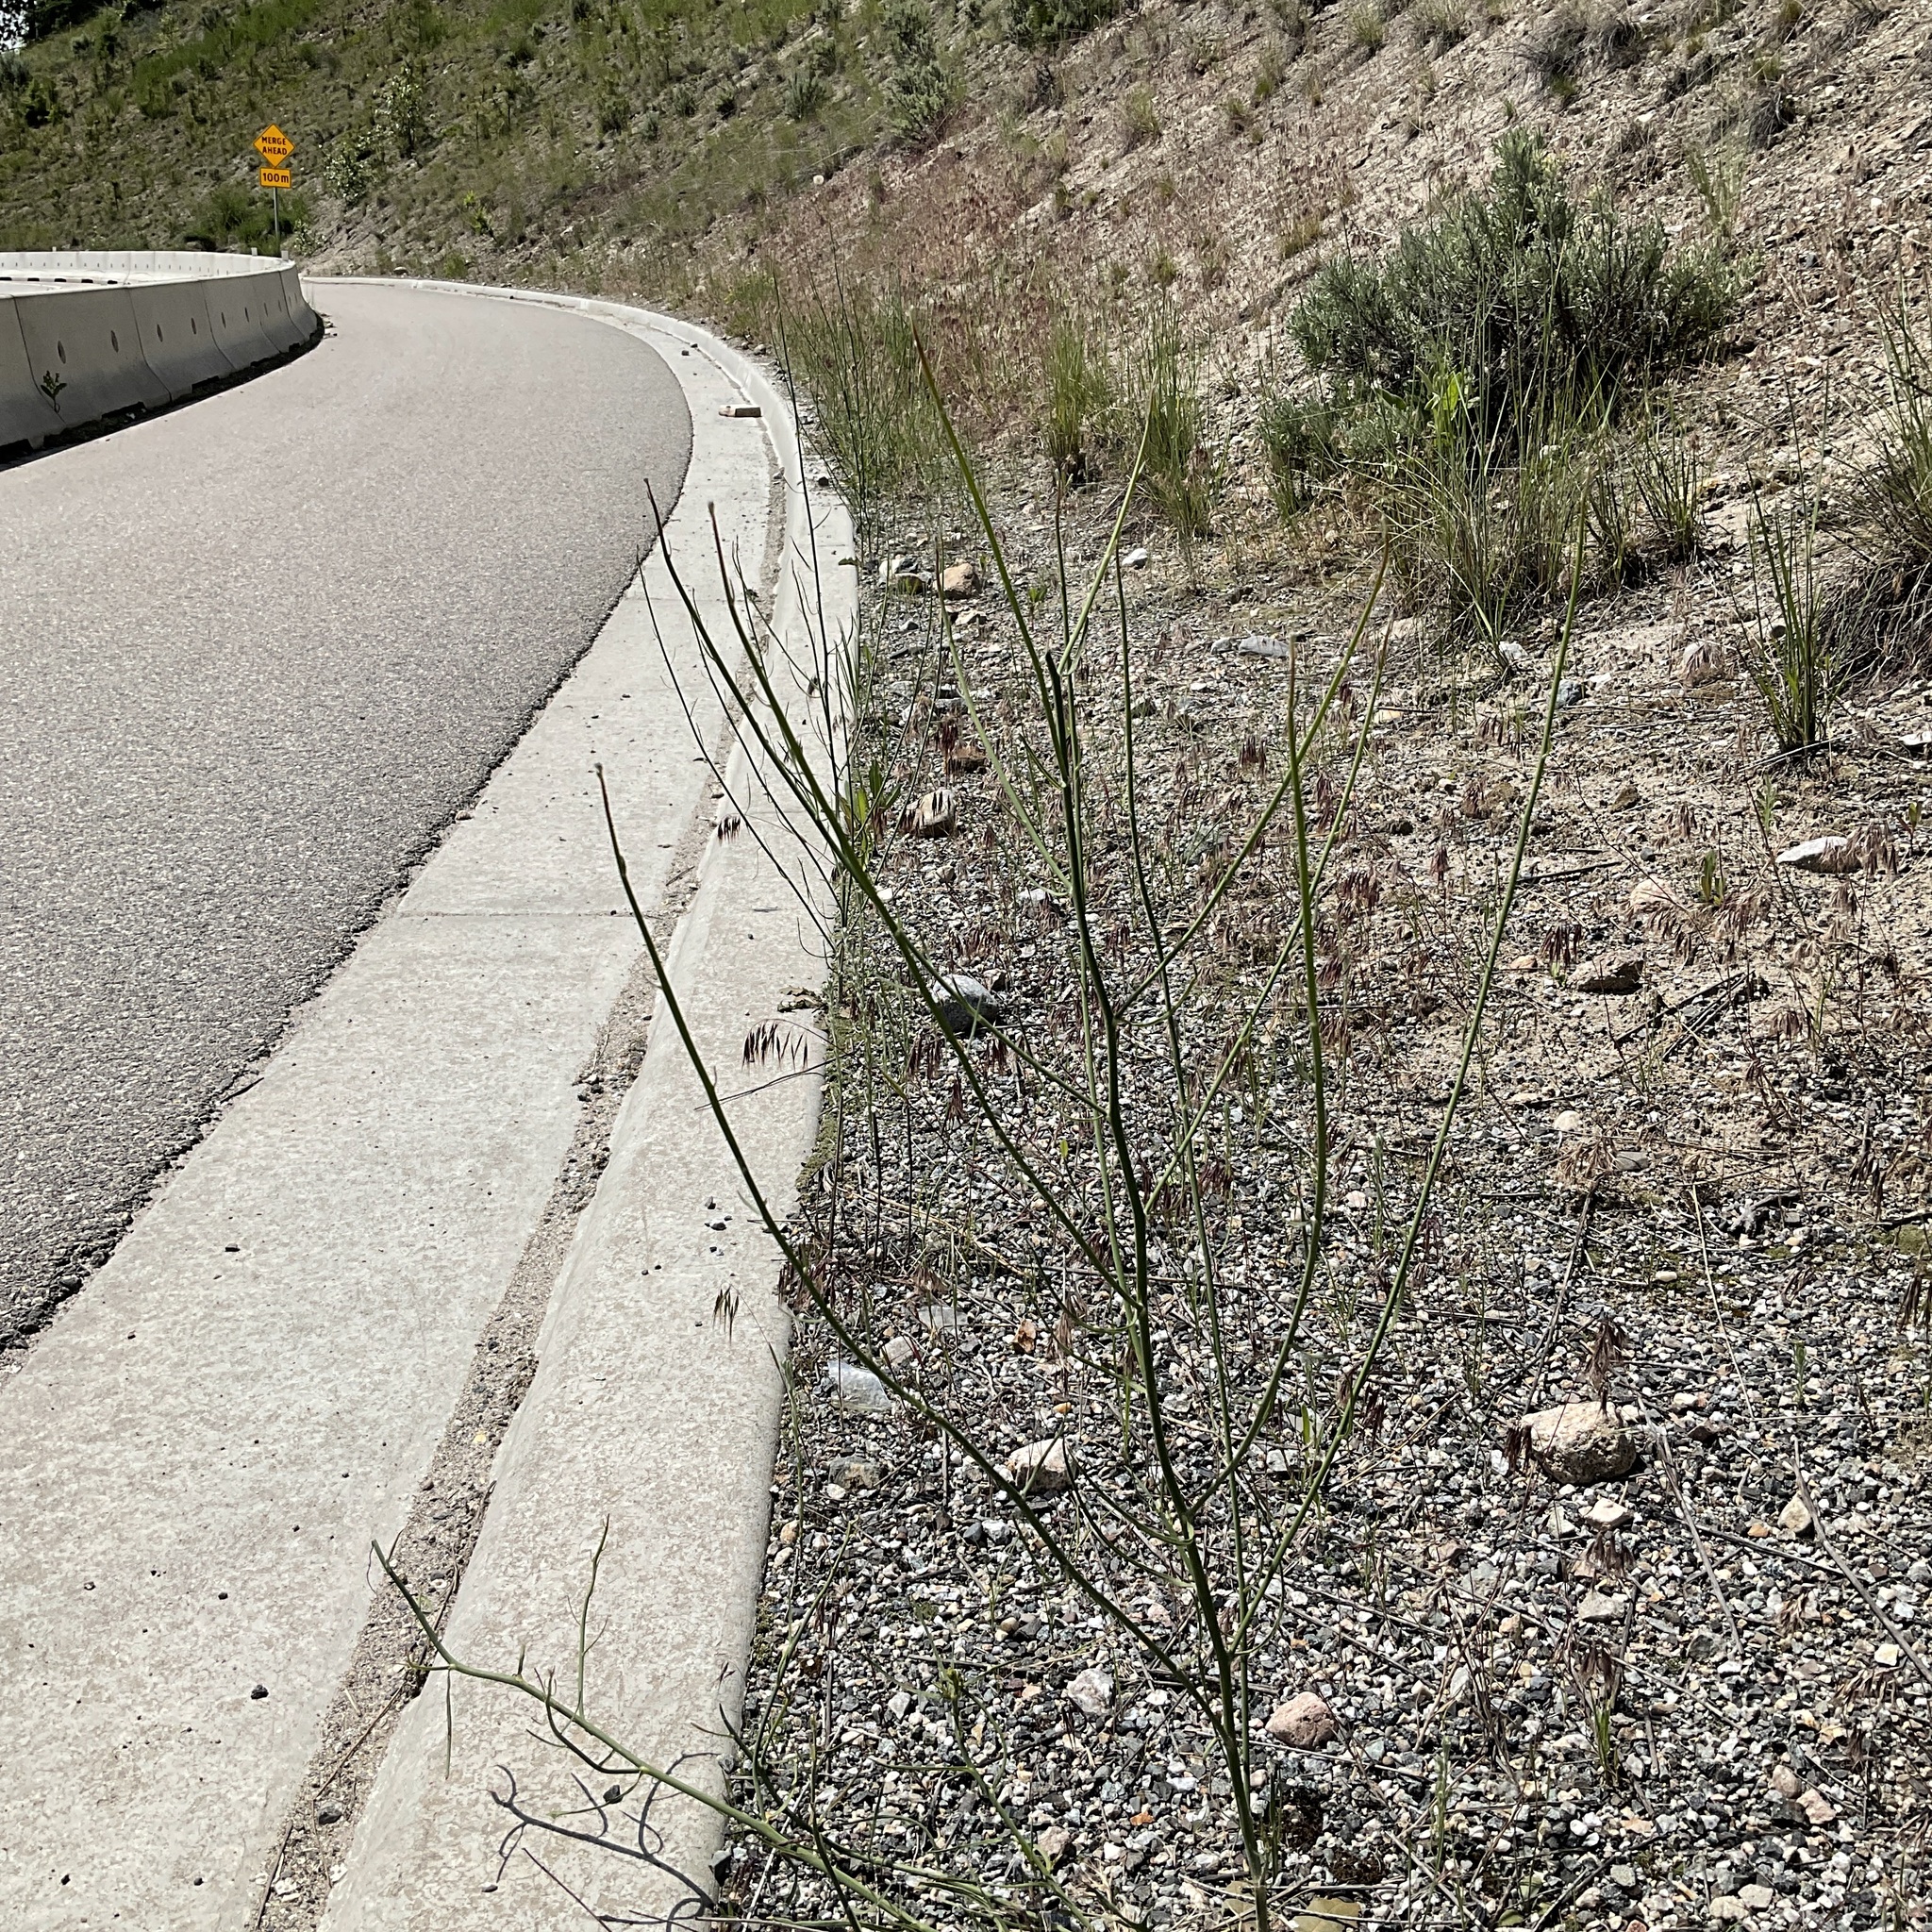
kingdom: Plantae
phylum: Tracheophyta
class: Magnoliopsida
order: Asterales
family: Asteraceae
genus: Chondrilla
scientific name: Chondrilla juncea
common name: Skeleton weed
